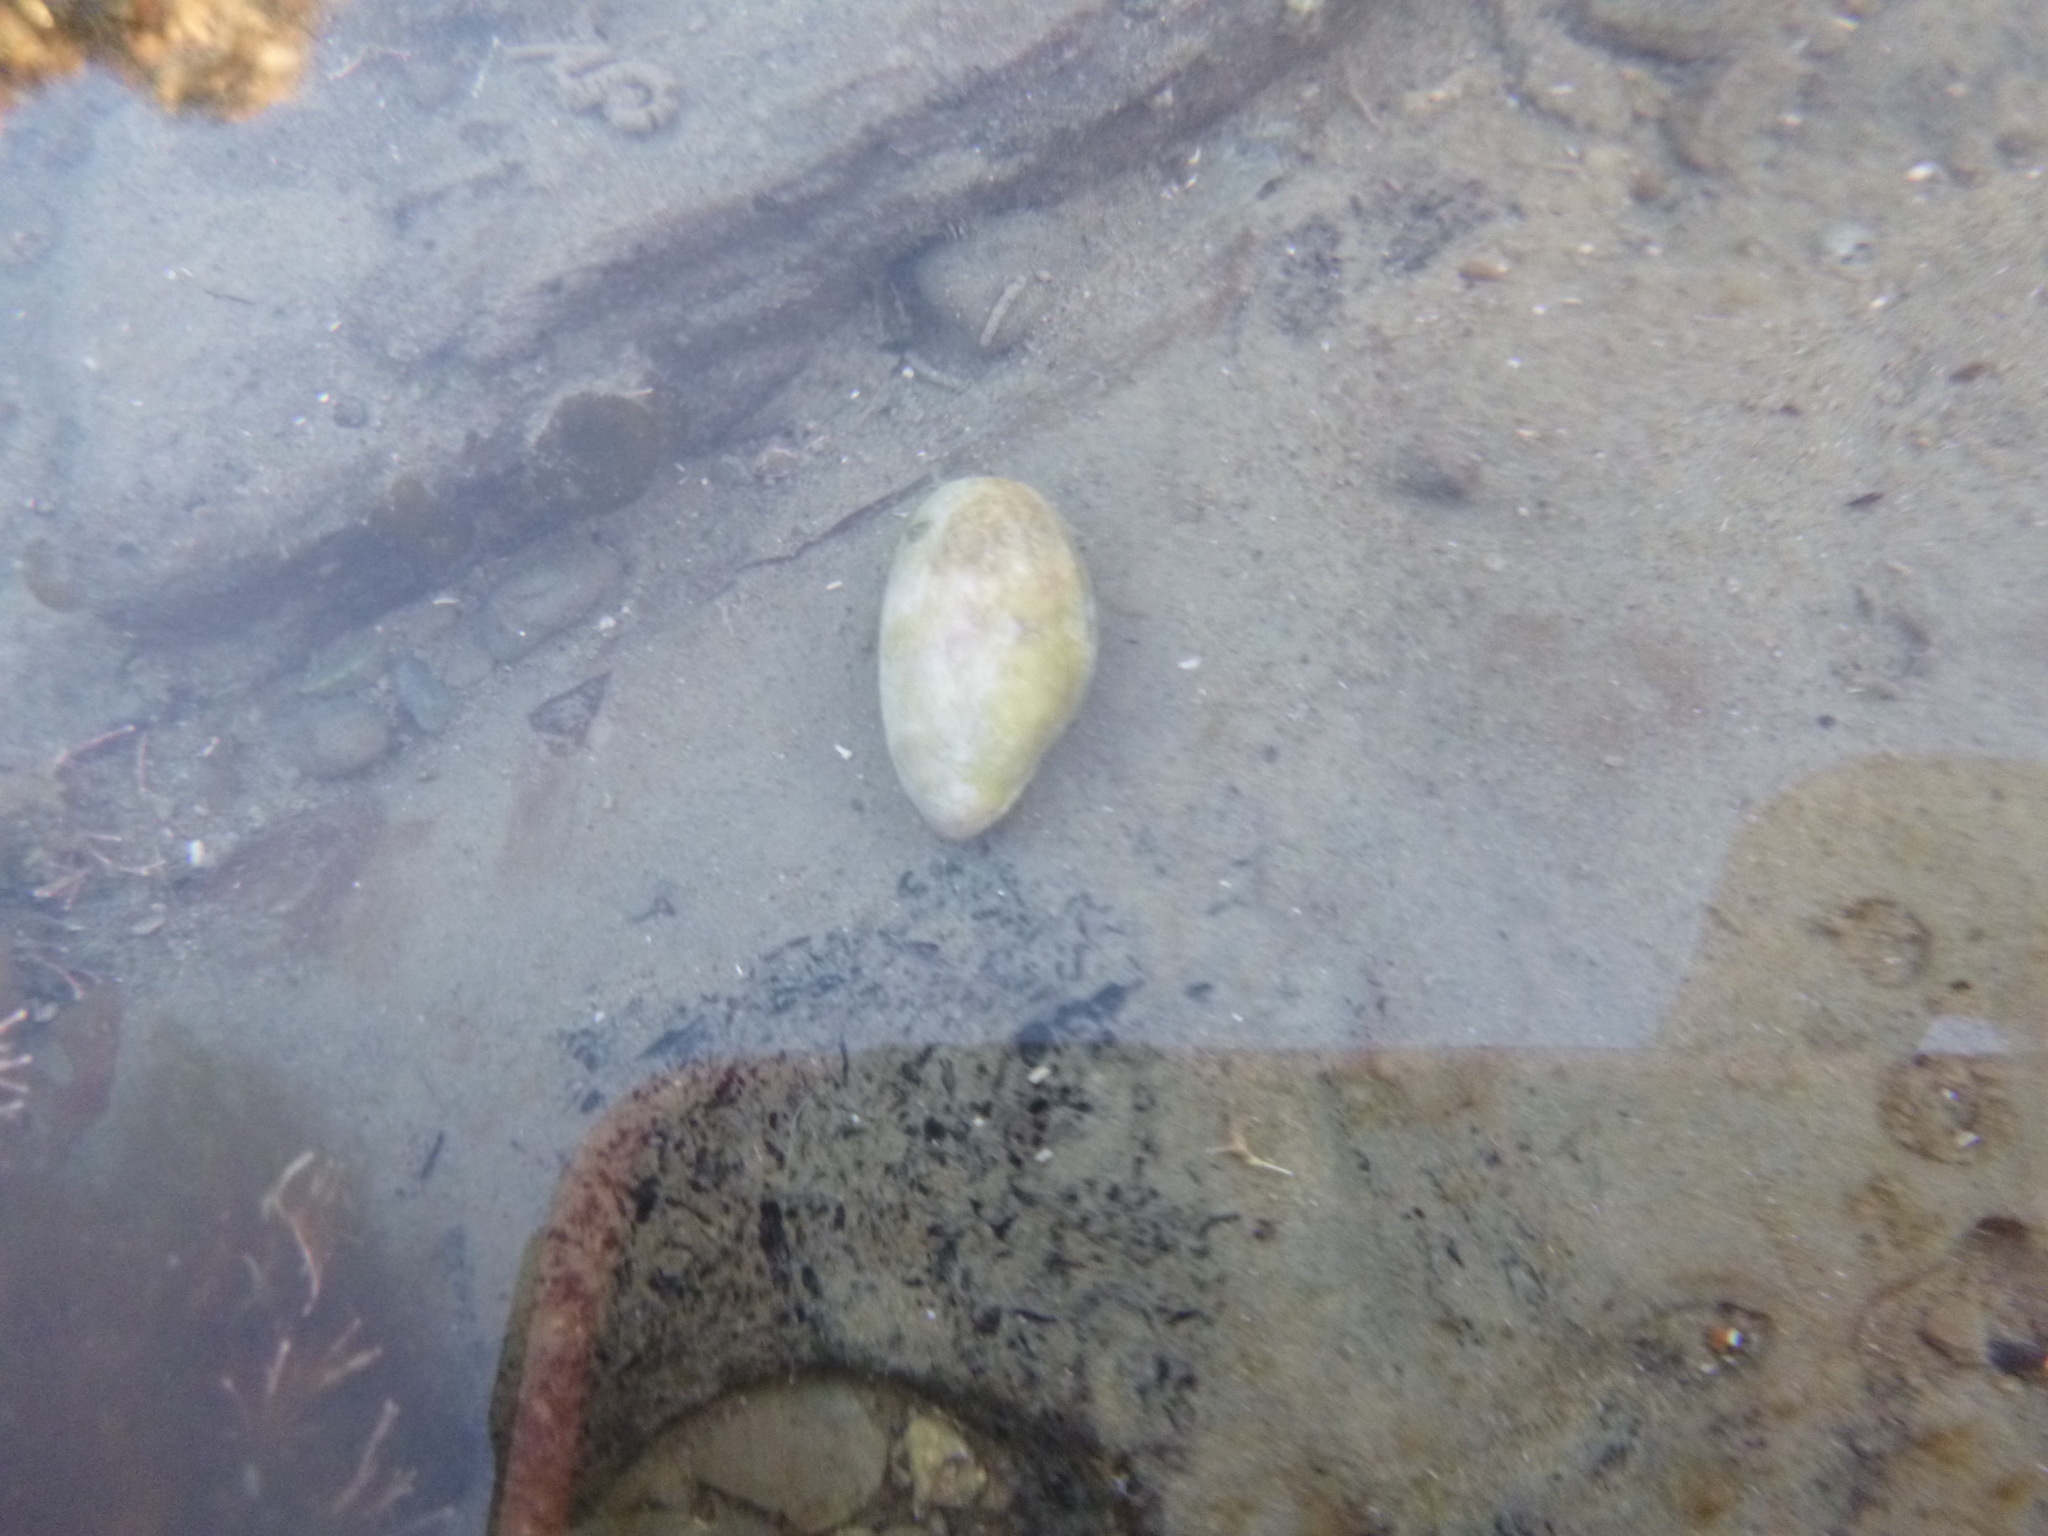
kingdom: Animalia
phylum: Mollusca
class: Gastropoda
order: Cephalaspidea
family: Bullidae
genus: Bulla
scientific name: Bulla quoyii
